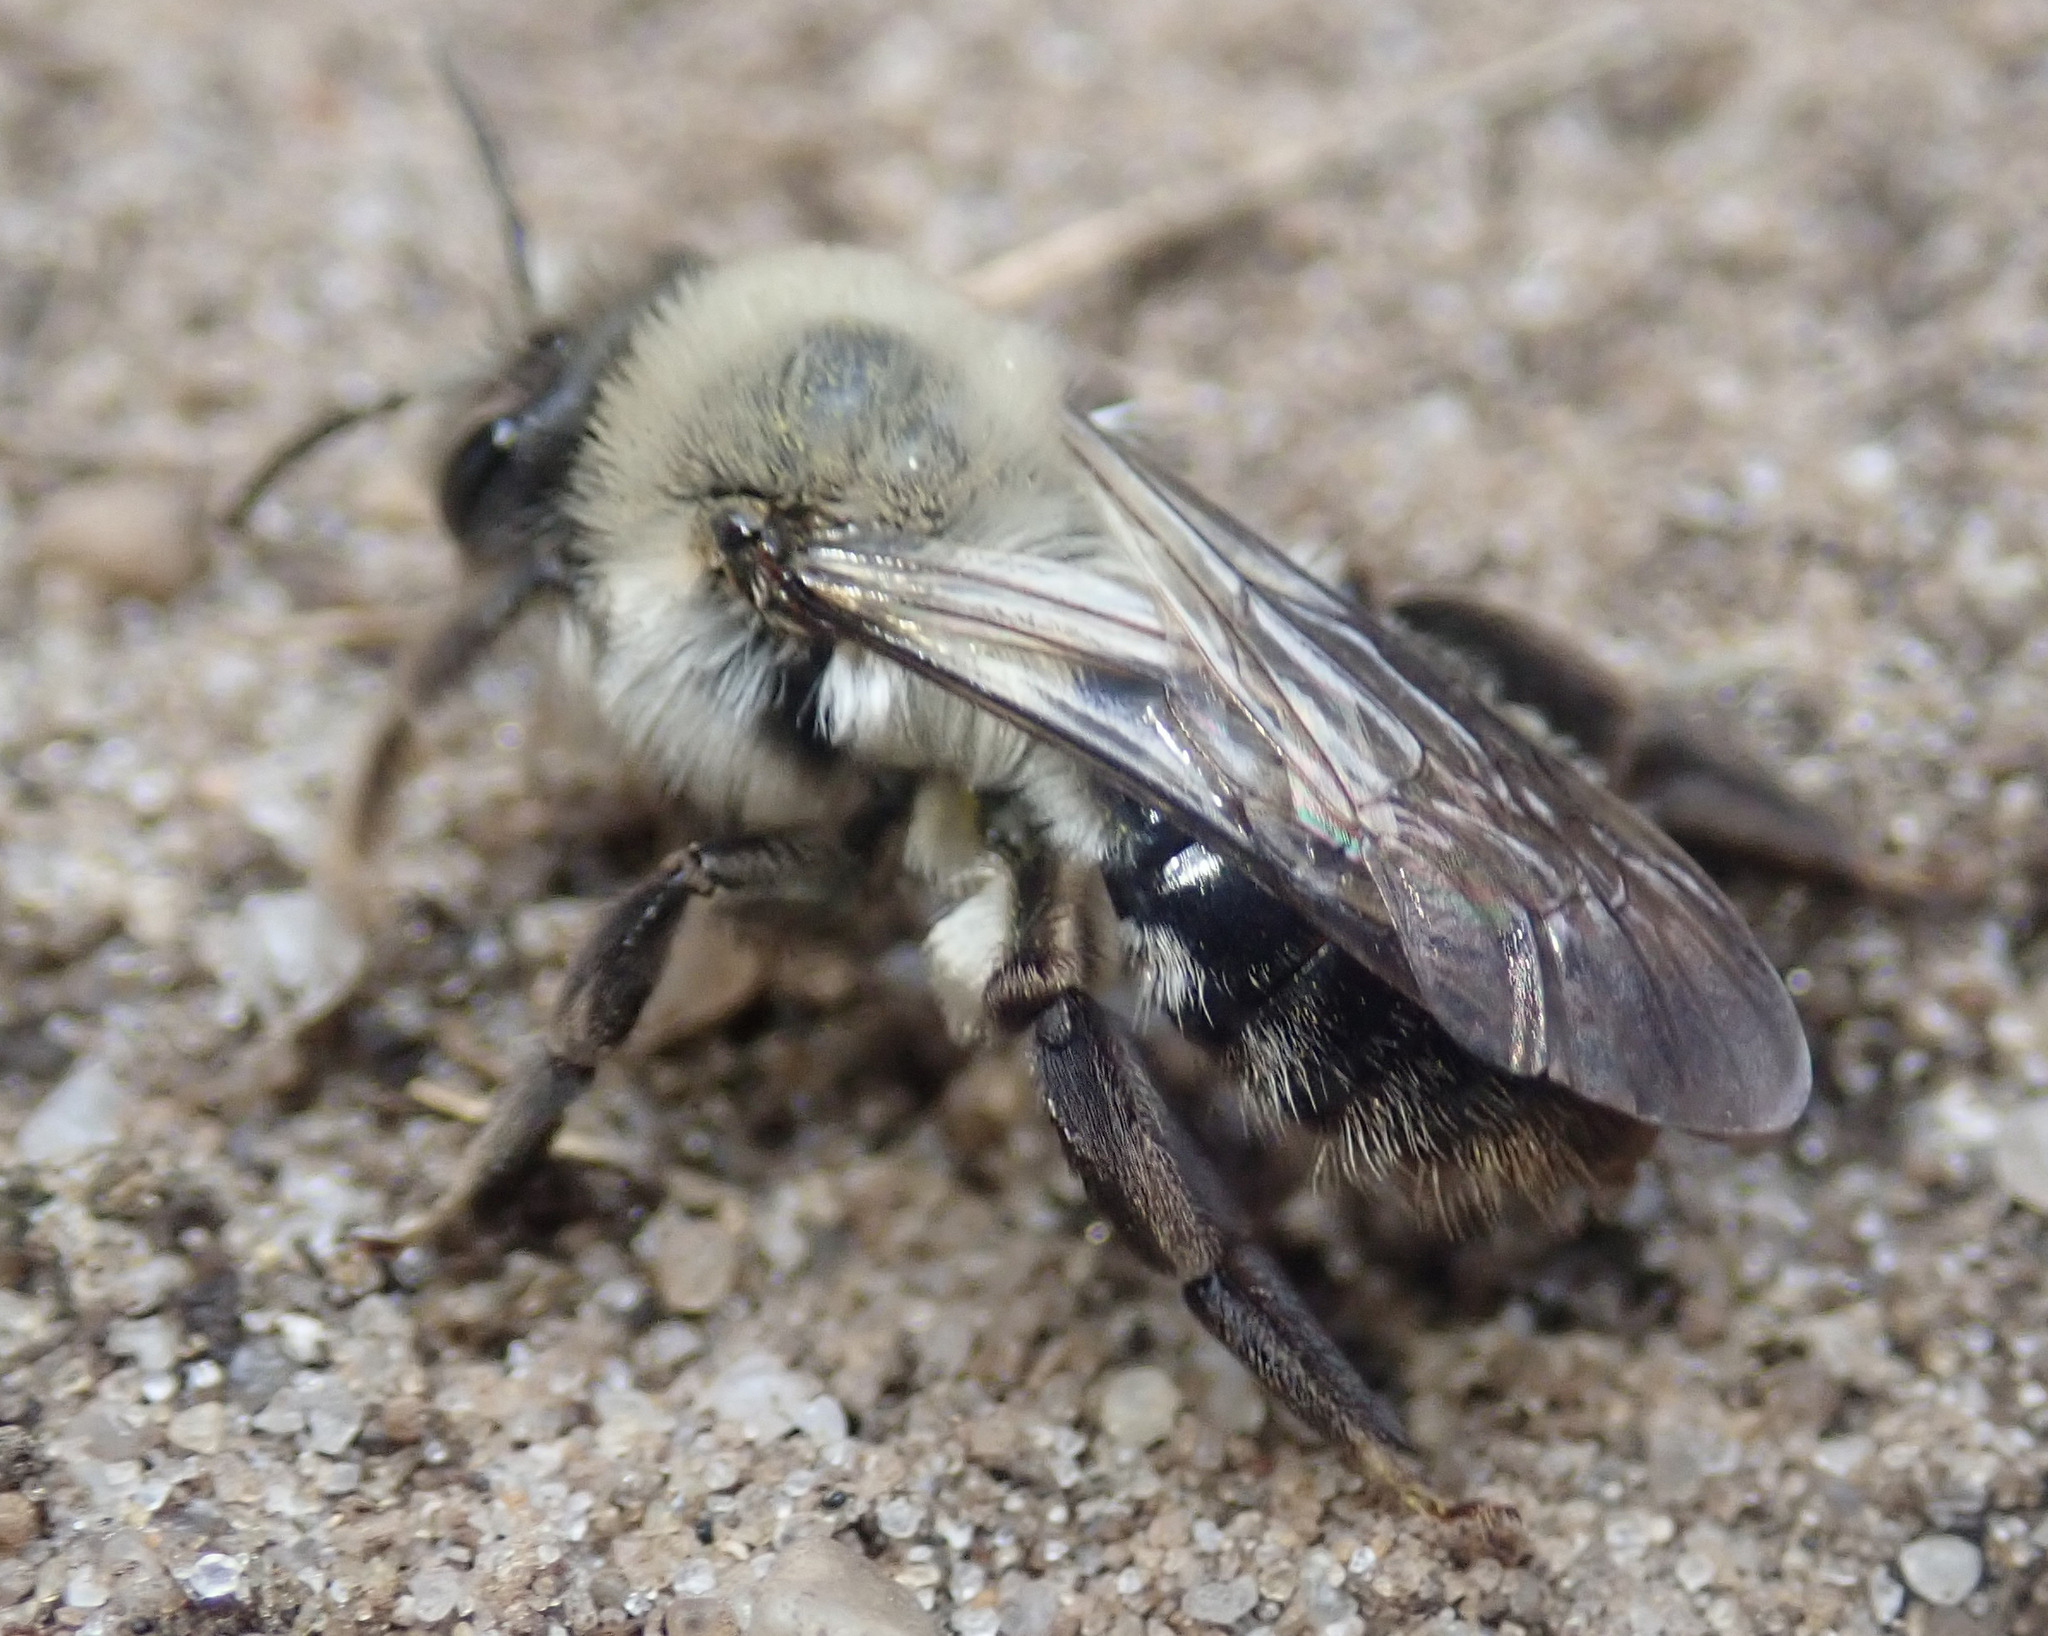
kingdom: Animalia
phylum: Arthropoda
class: Insecta
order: Hymenoptera
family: Andrenidae
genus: Andrena
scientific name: Andrena vaga
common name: Grey-backed mining bee
